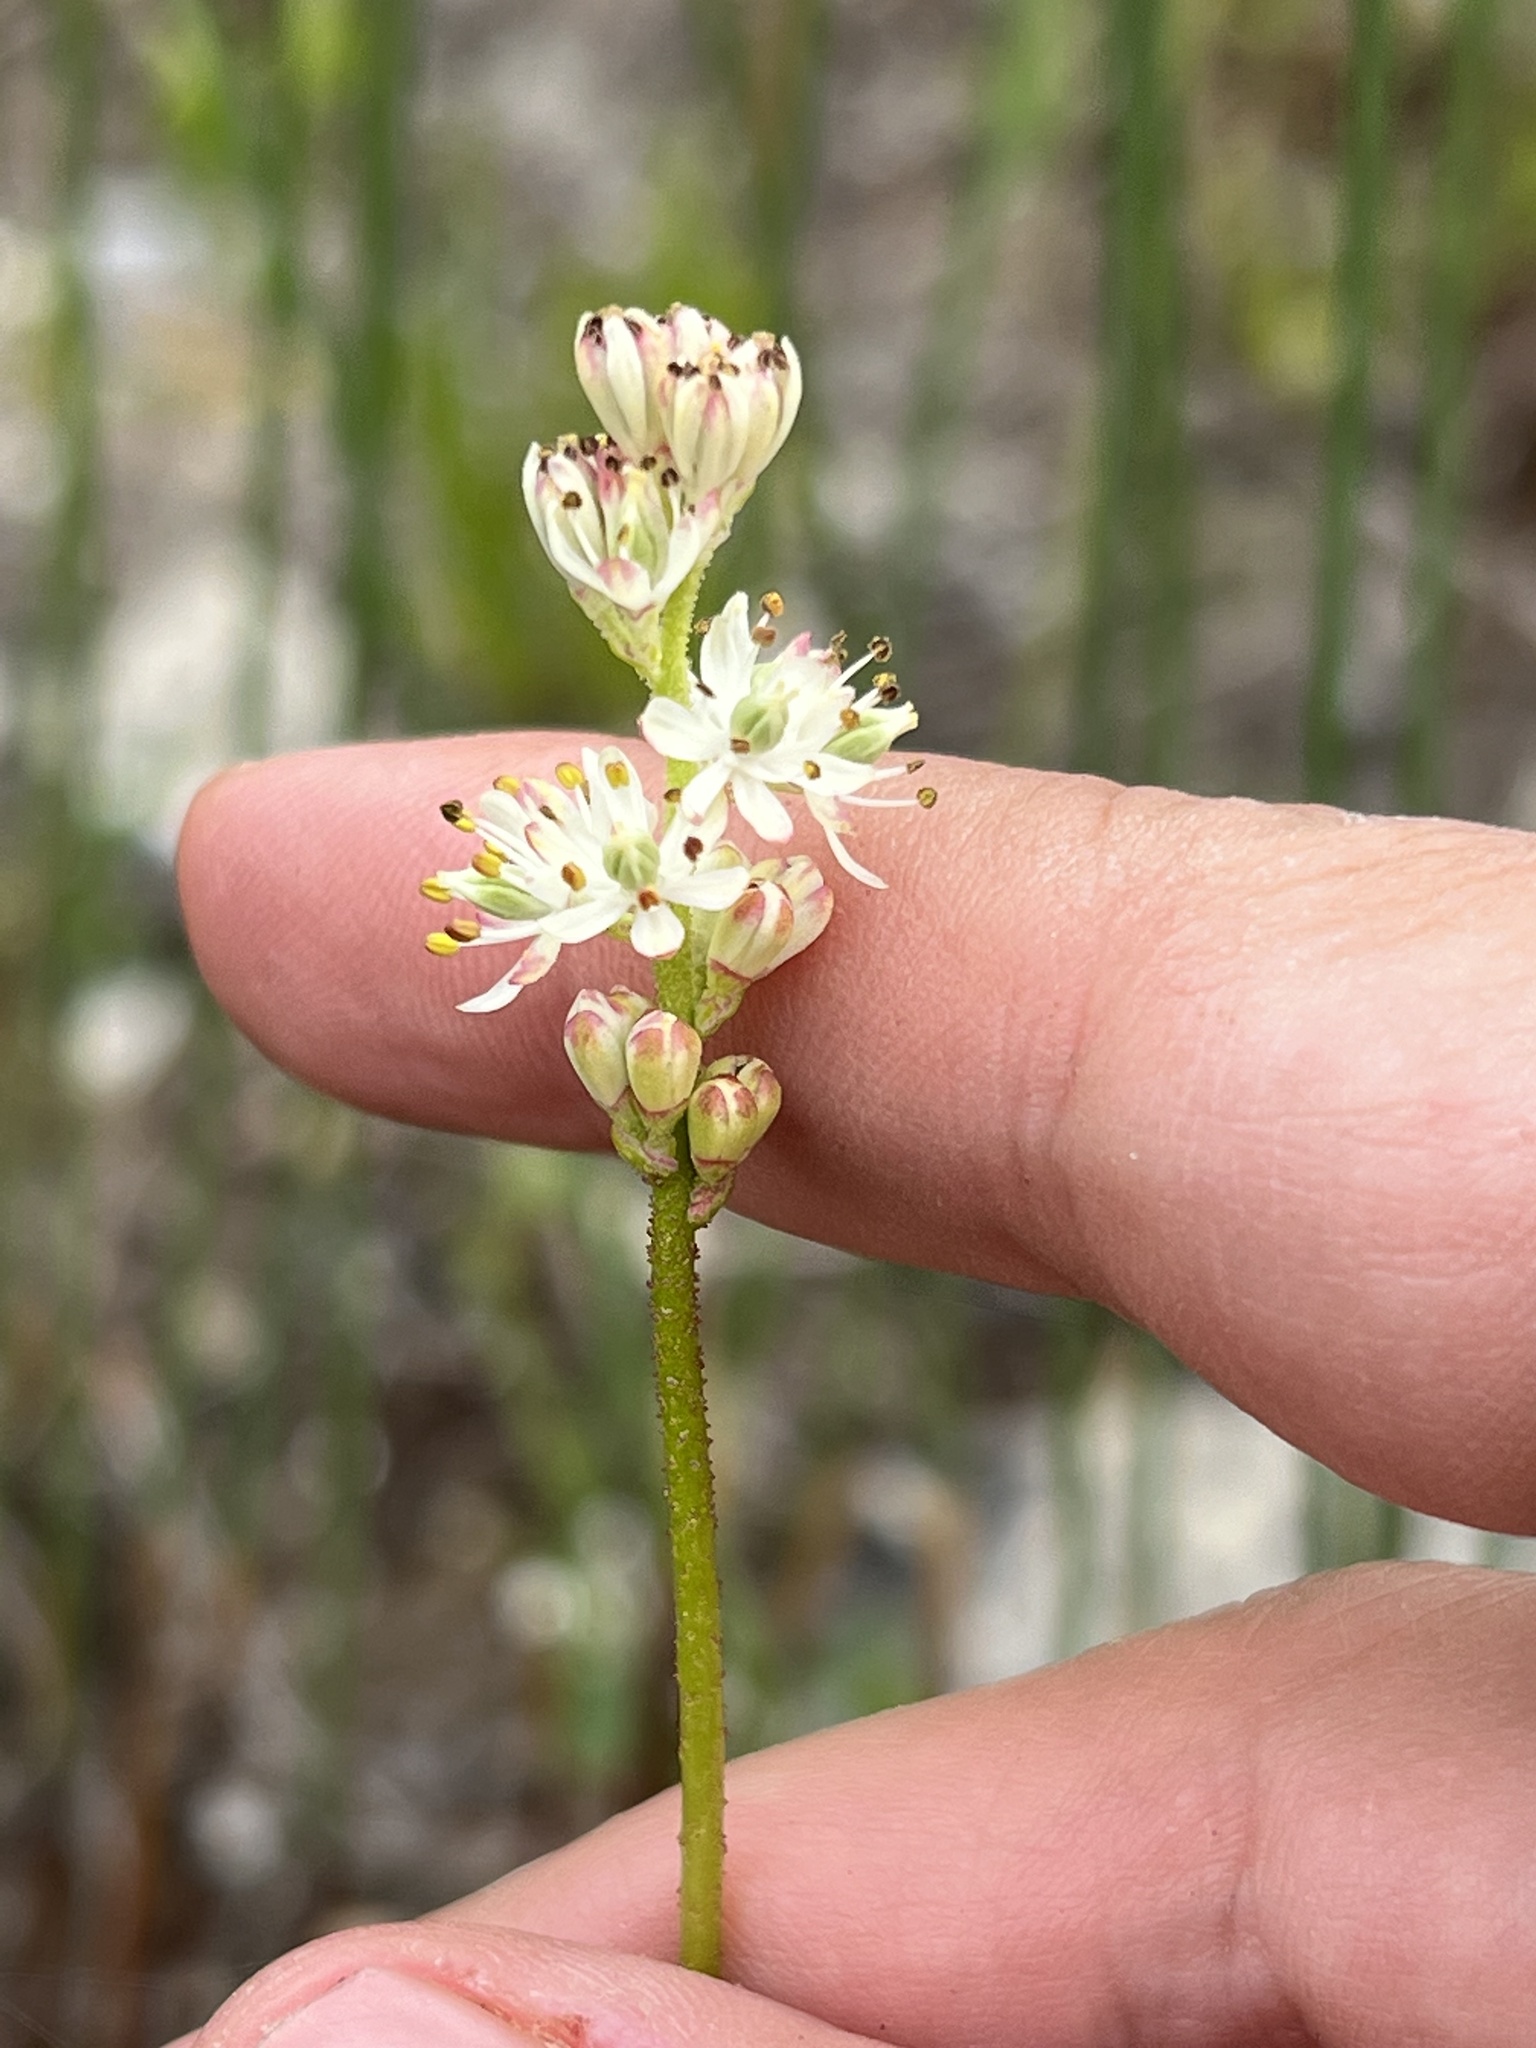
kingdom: Plantae
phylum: Tracheophyta
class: Liliopsida
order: Alismatales
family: Tofieldiaceae
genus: Triantha
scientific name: Triantha glutinosa
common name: Glutinous tofieldia
